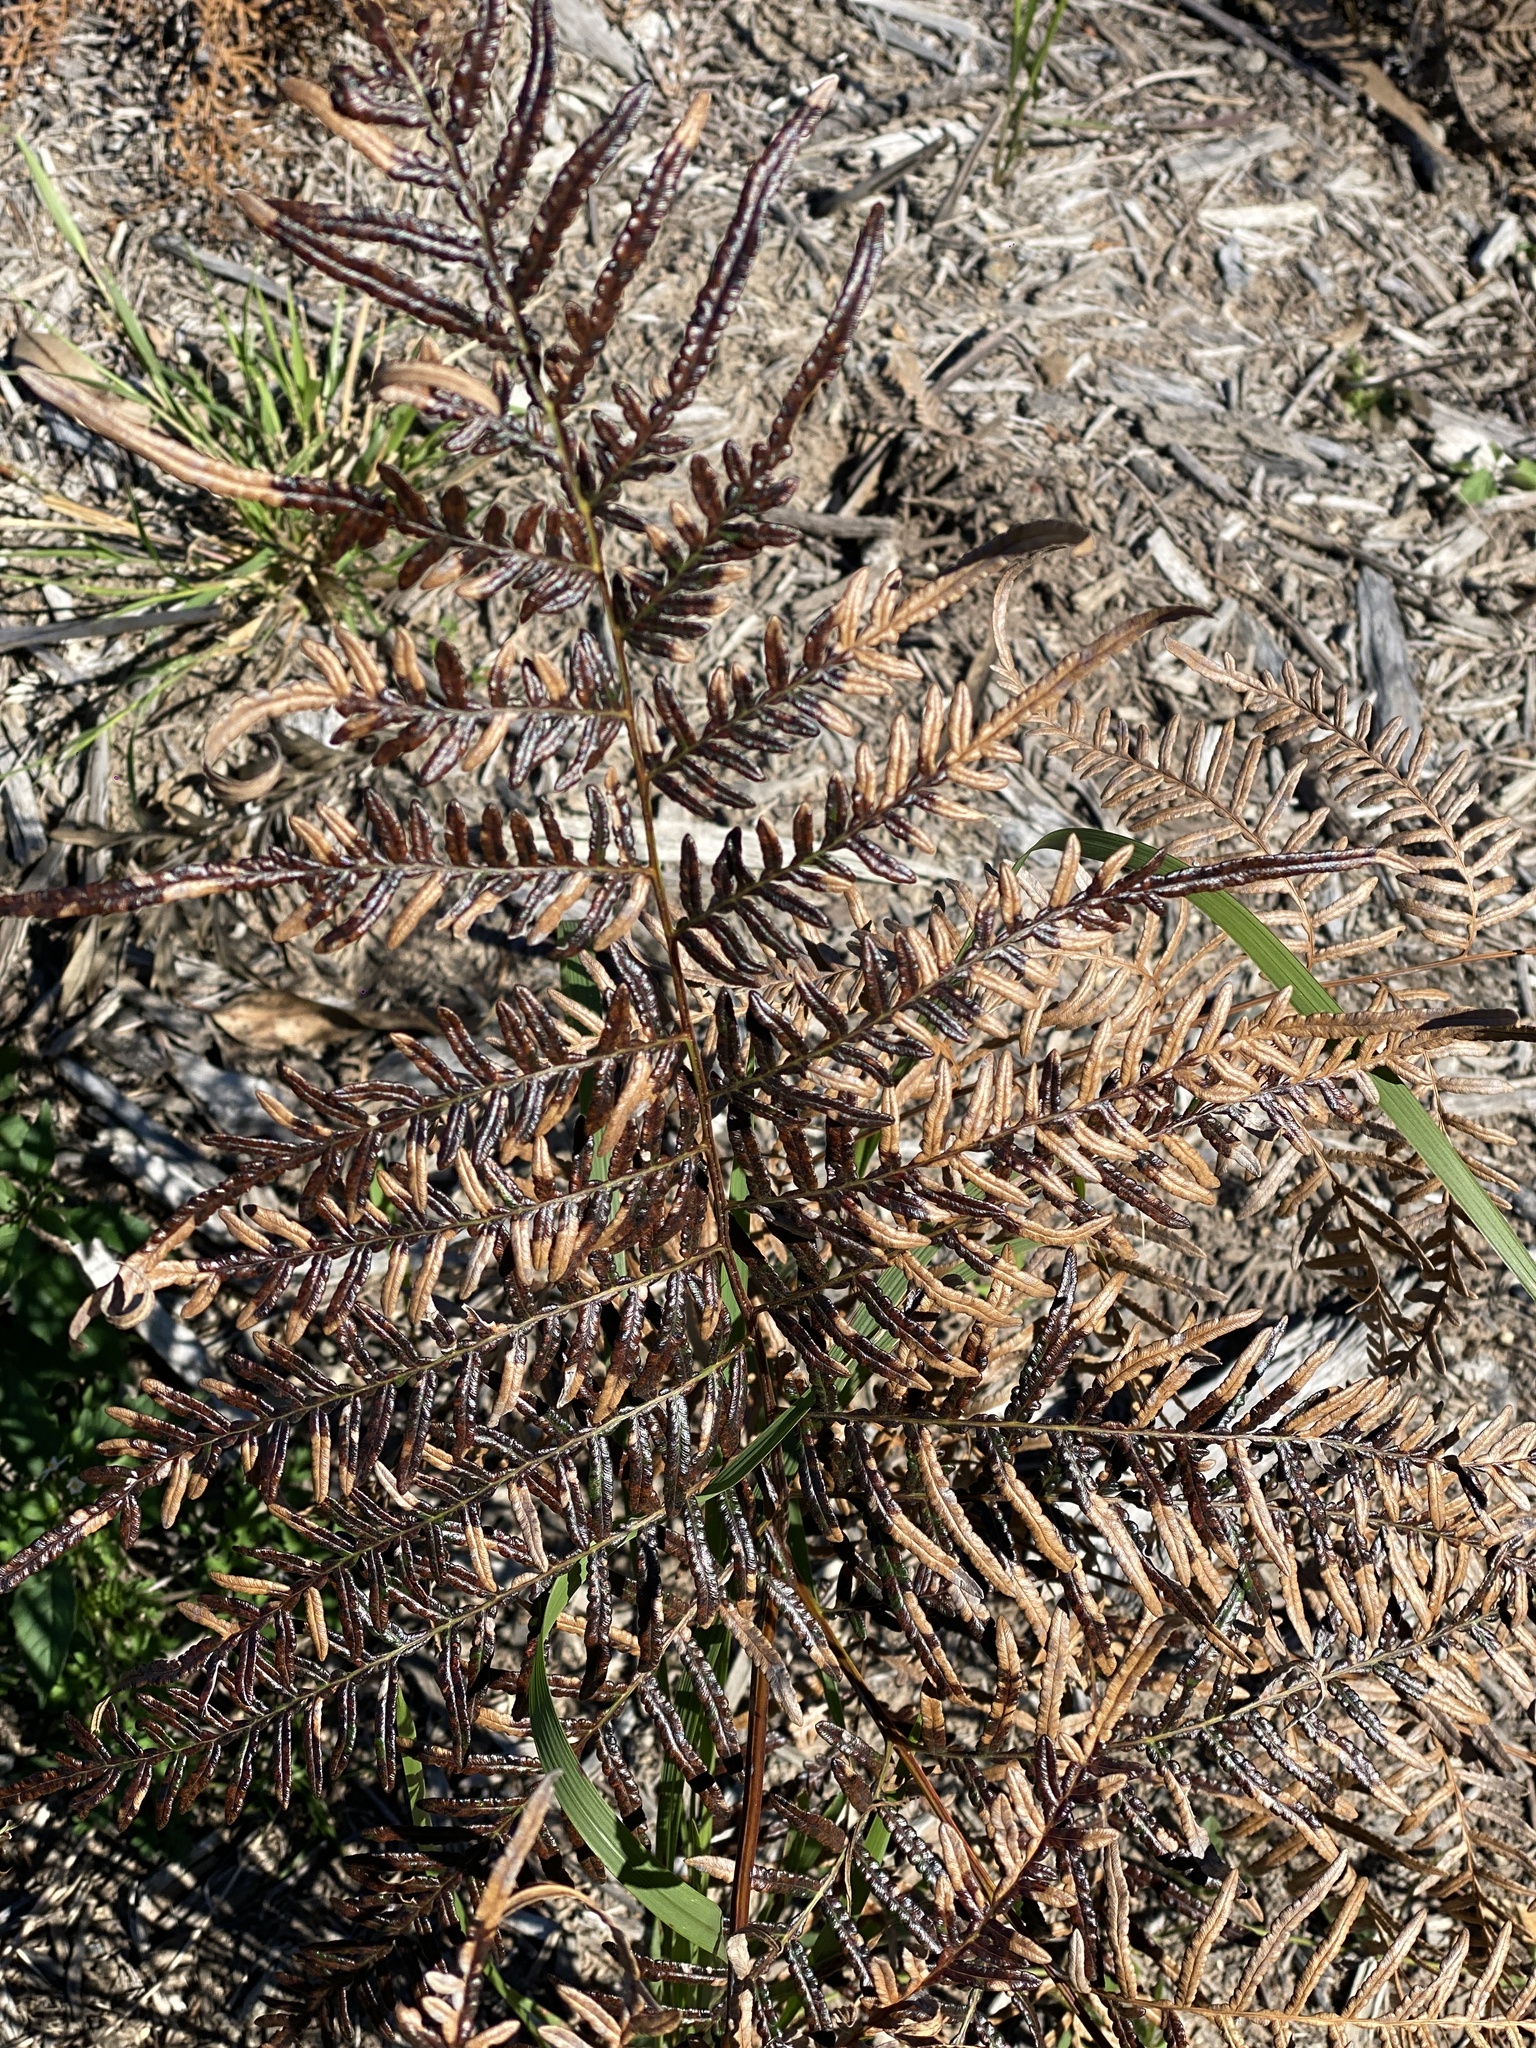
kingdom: Plantae
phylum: Tracheophyta
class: Polypodiopsida
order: Polypodiales
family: Dennstaedtiaceae
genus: Pteridium
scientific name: Pteridium esculentum
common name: Bracken fern
